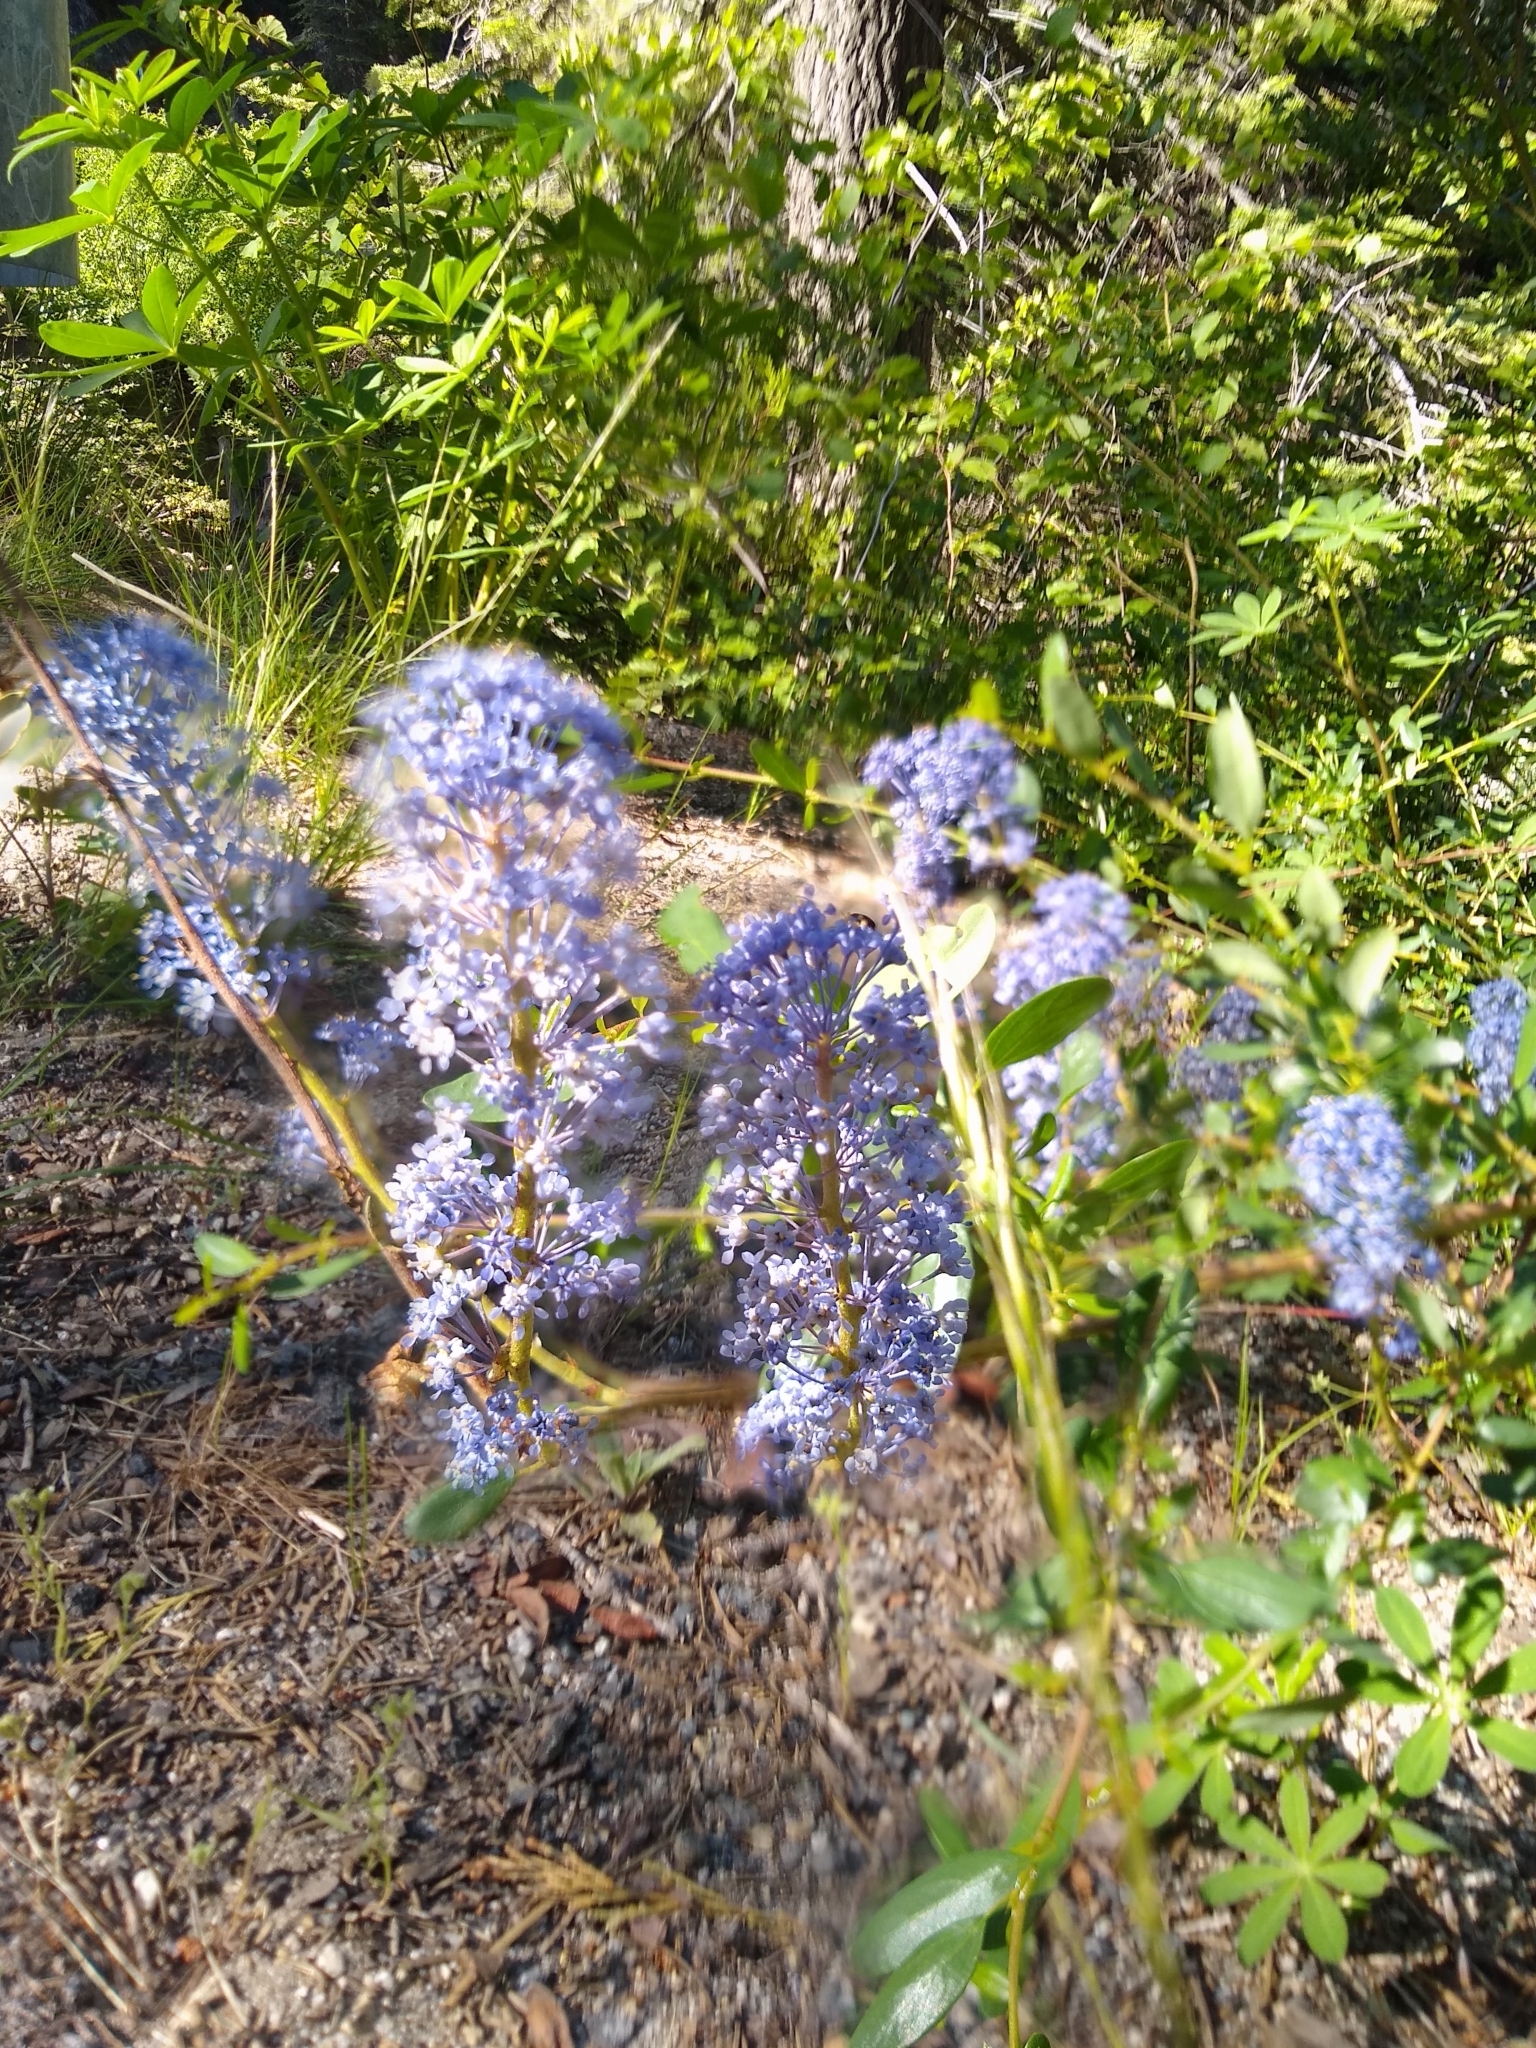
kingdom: Plantae
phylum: Tracheophyta
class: Magnoliopsida
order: Rosales
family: Rhamnaceae
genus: Ceanothus
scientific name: Ceanothus parvifolius
